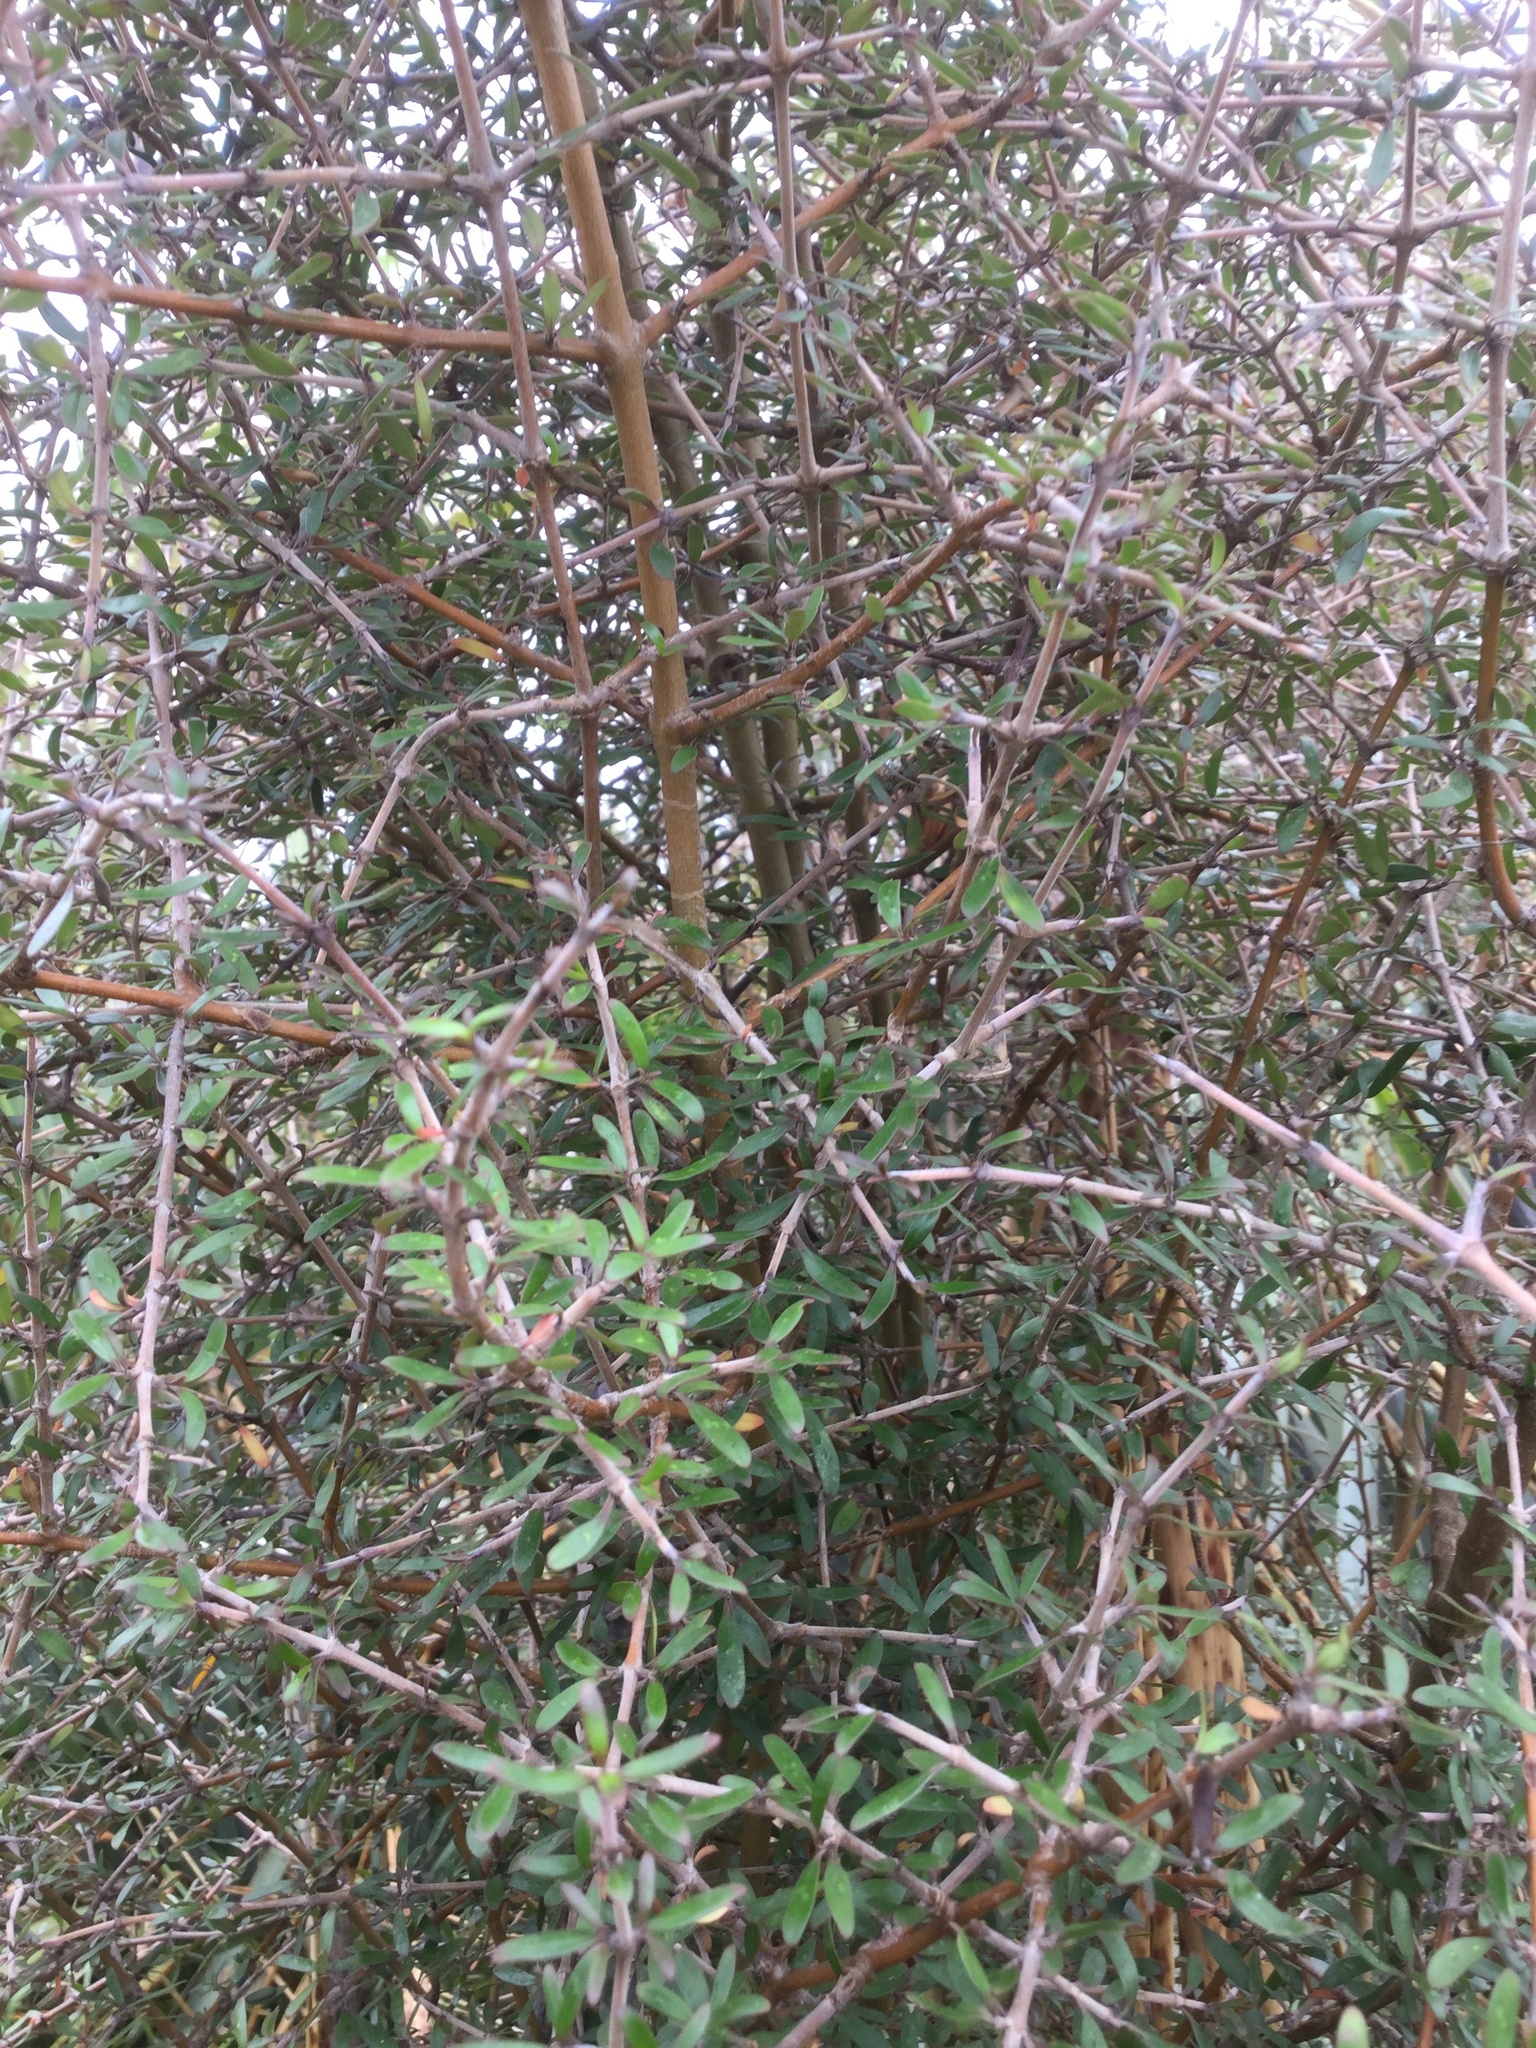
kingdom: Plantae
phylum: Tracheophyta
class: Magnoliopsida
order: Gentianales
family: Rubiaceae
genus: Coprosma
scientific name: Coprosma propinqua
